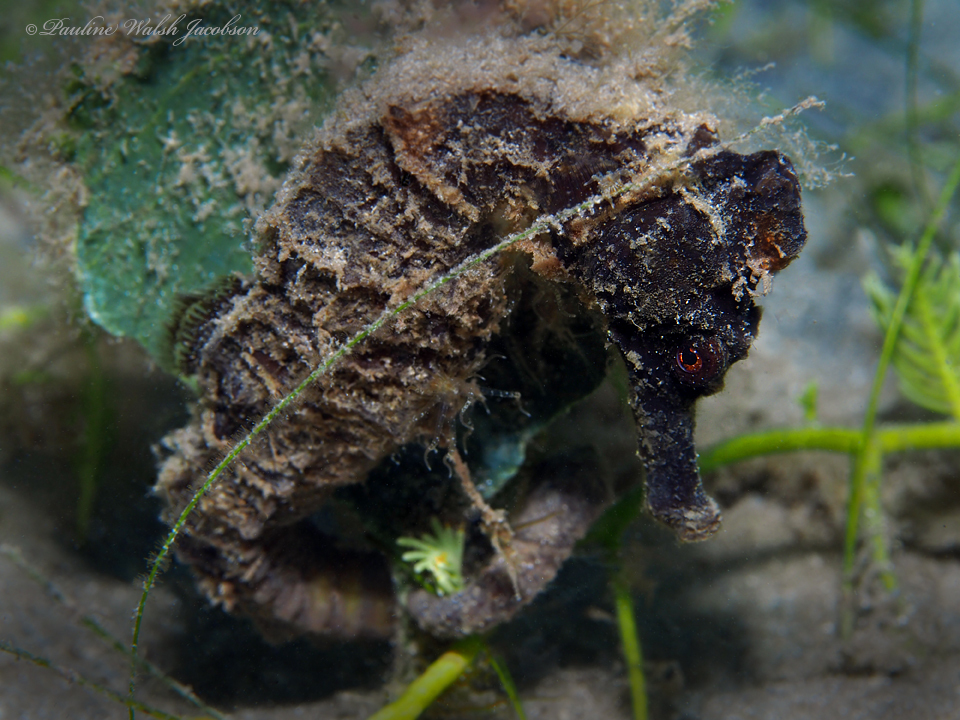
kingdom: Animalia
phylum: Chordata
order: Syngnathiformes
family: Syngnathidae
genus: Hippocampus
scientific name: Hippocampus reidi
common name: Slender seahorse
